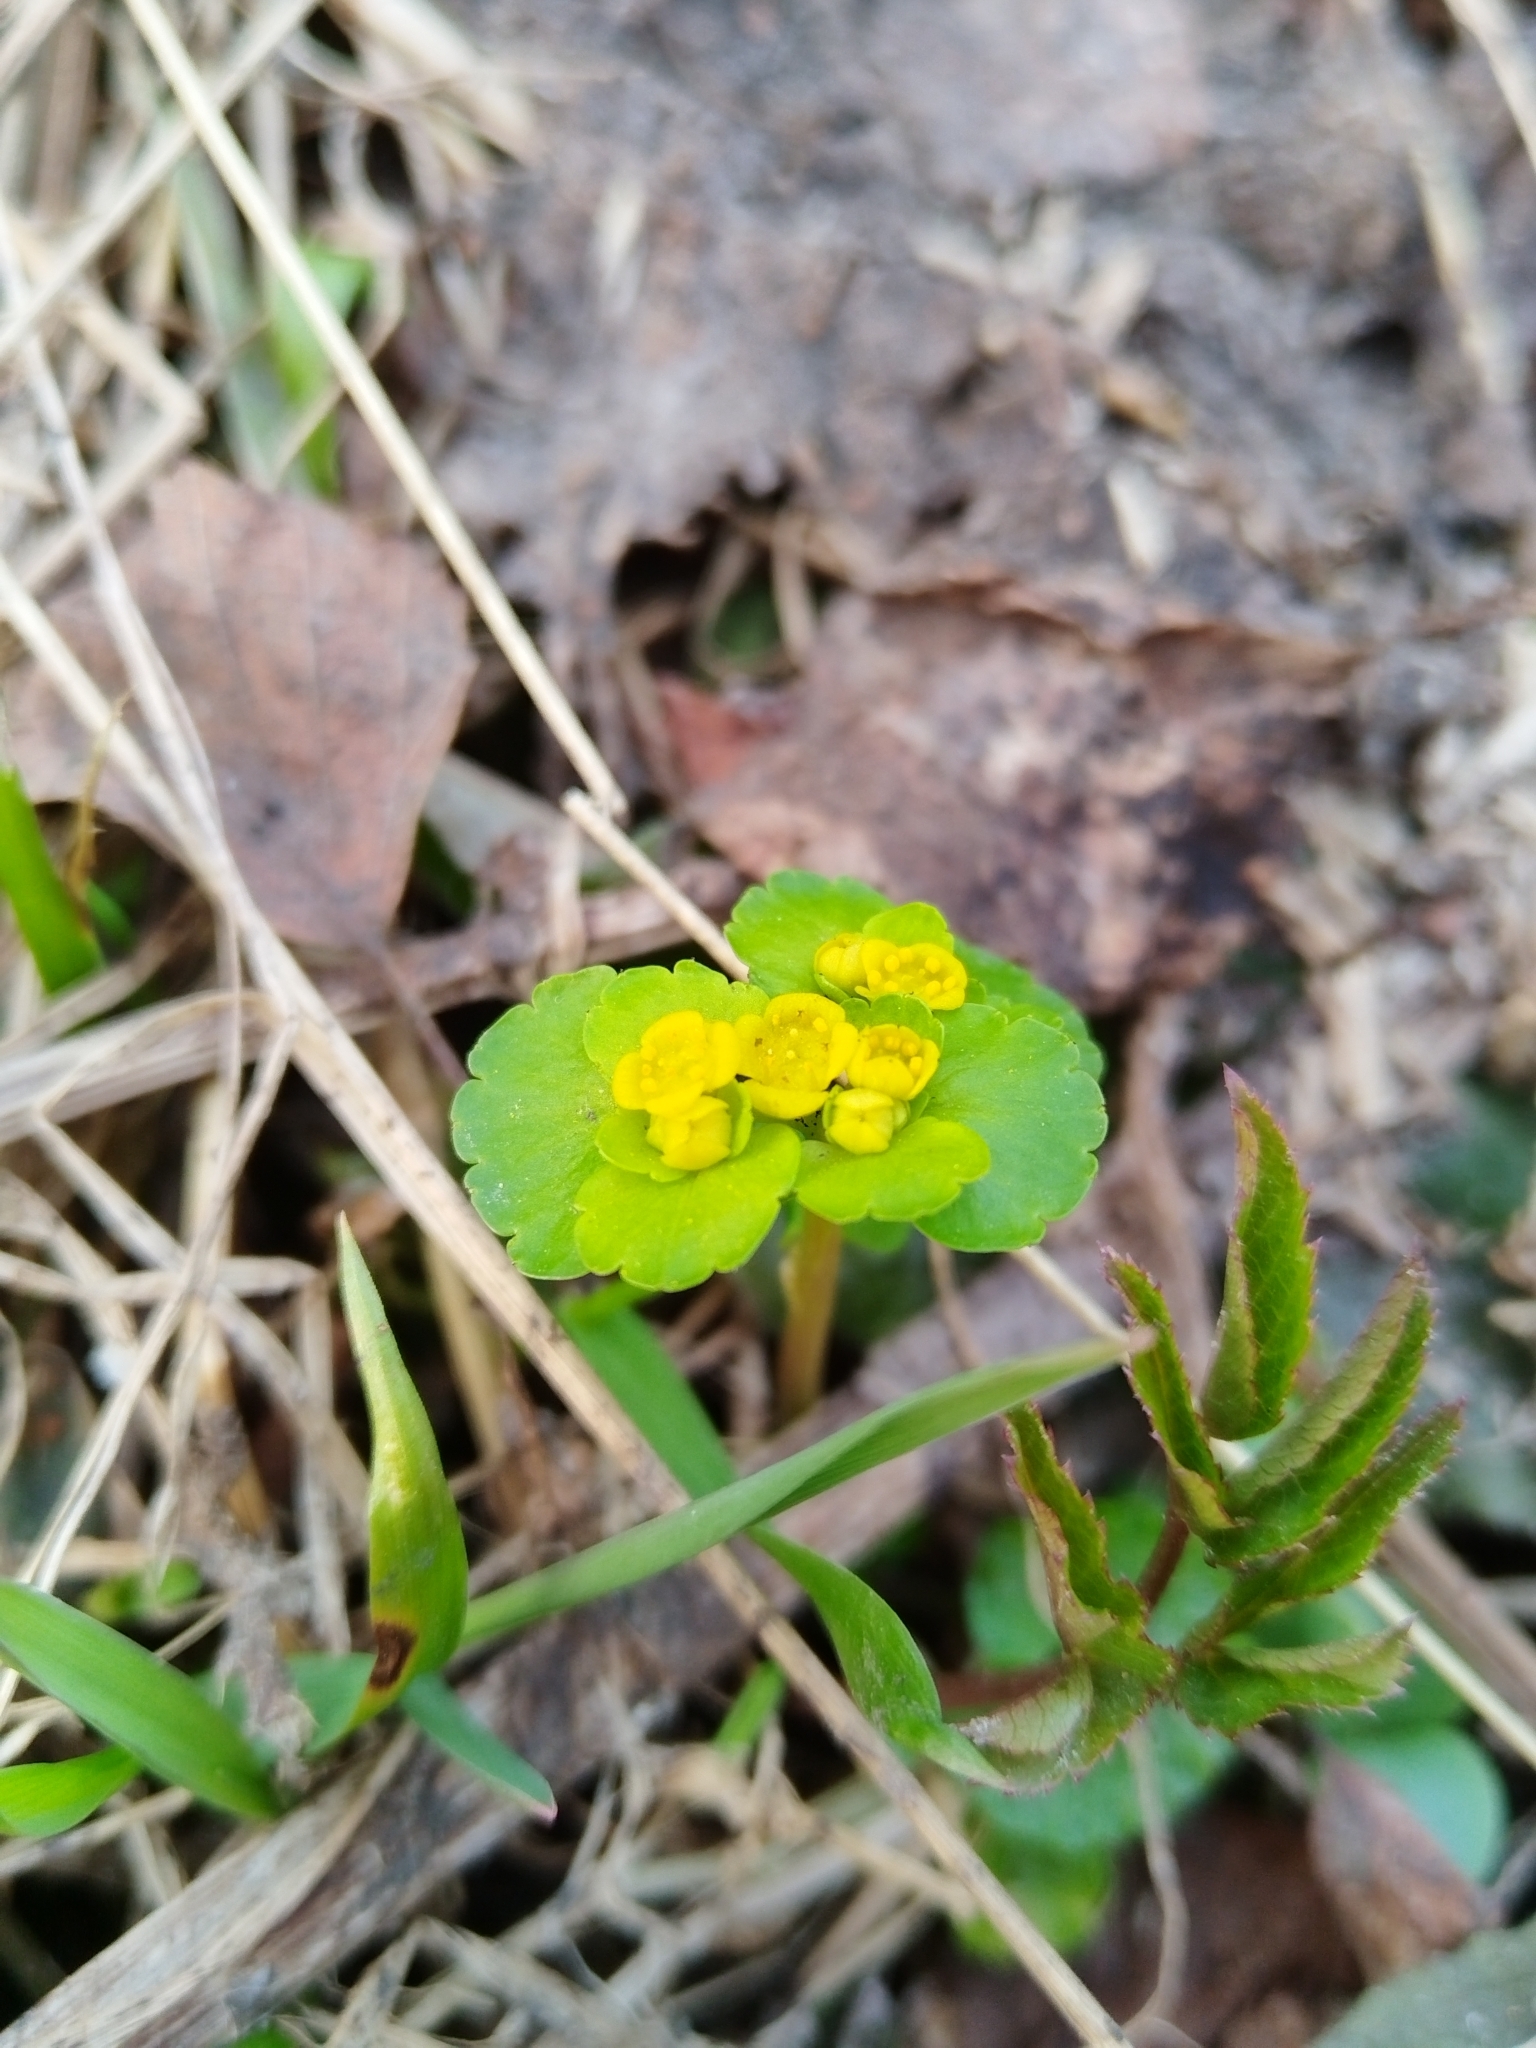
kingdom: Plantae
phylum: Tracheophyta
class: Magnoliopsida
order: Saxifragales
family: Saxifragaceae
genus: Chrysosplenium
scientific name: Chrysosplenium alternifolium
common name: Alternate-leaved golden-saxifrage
